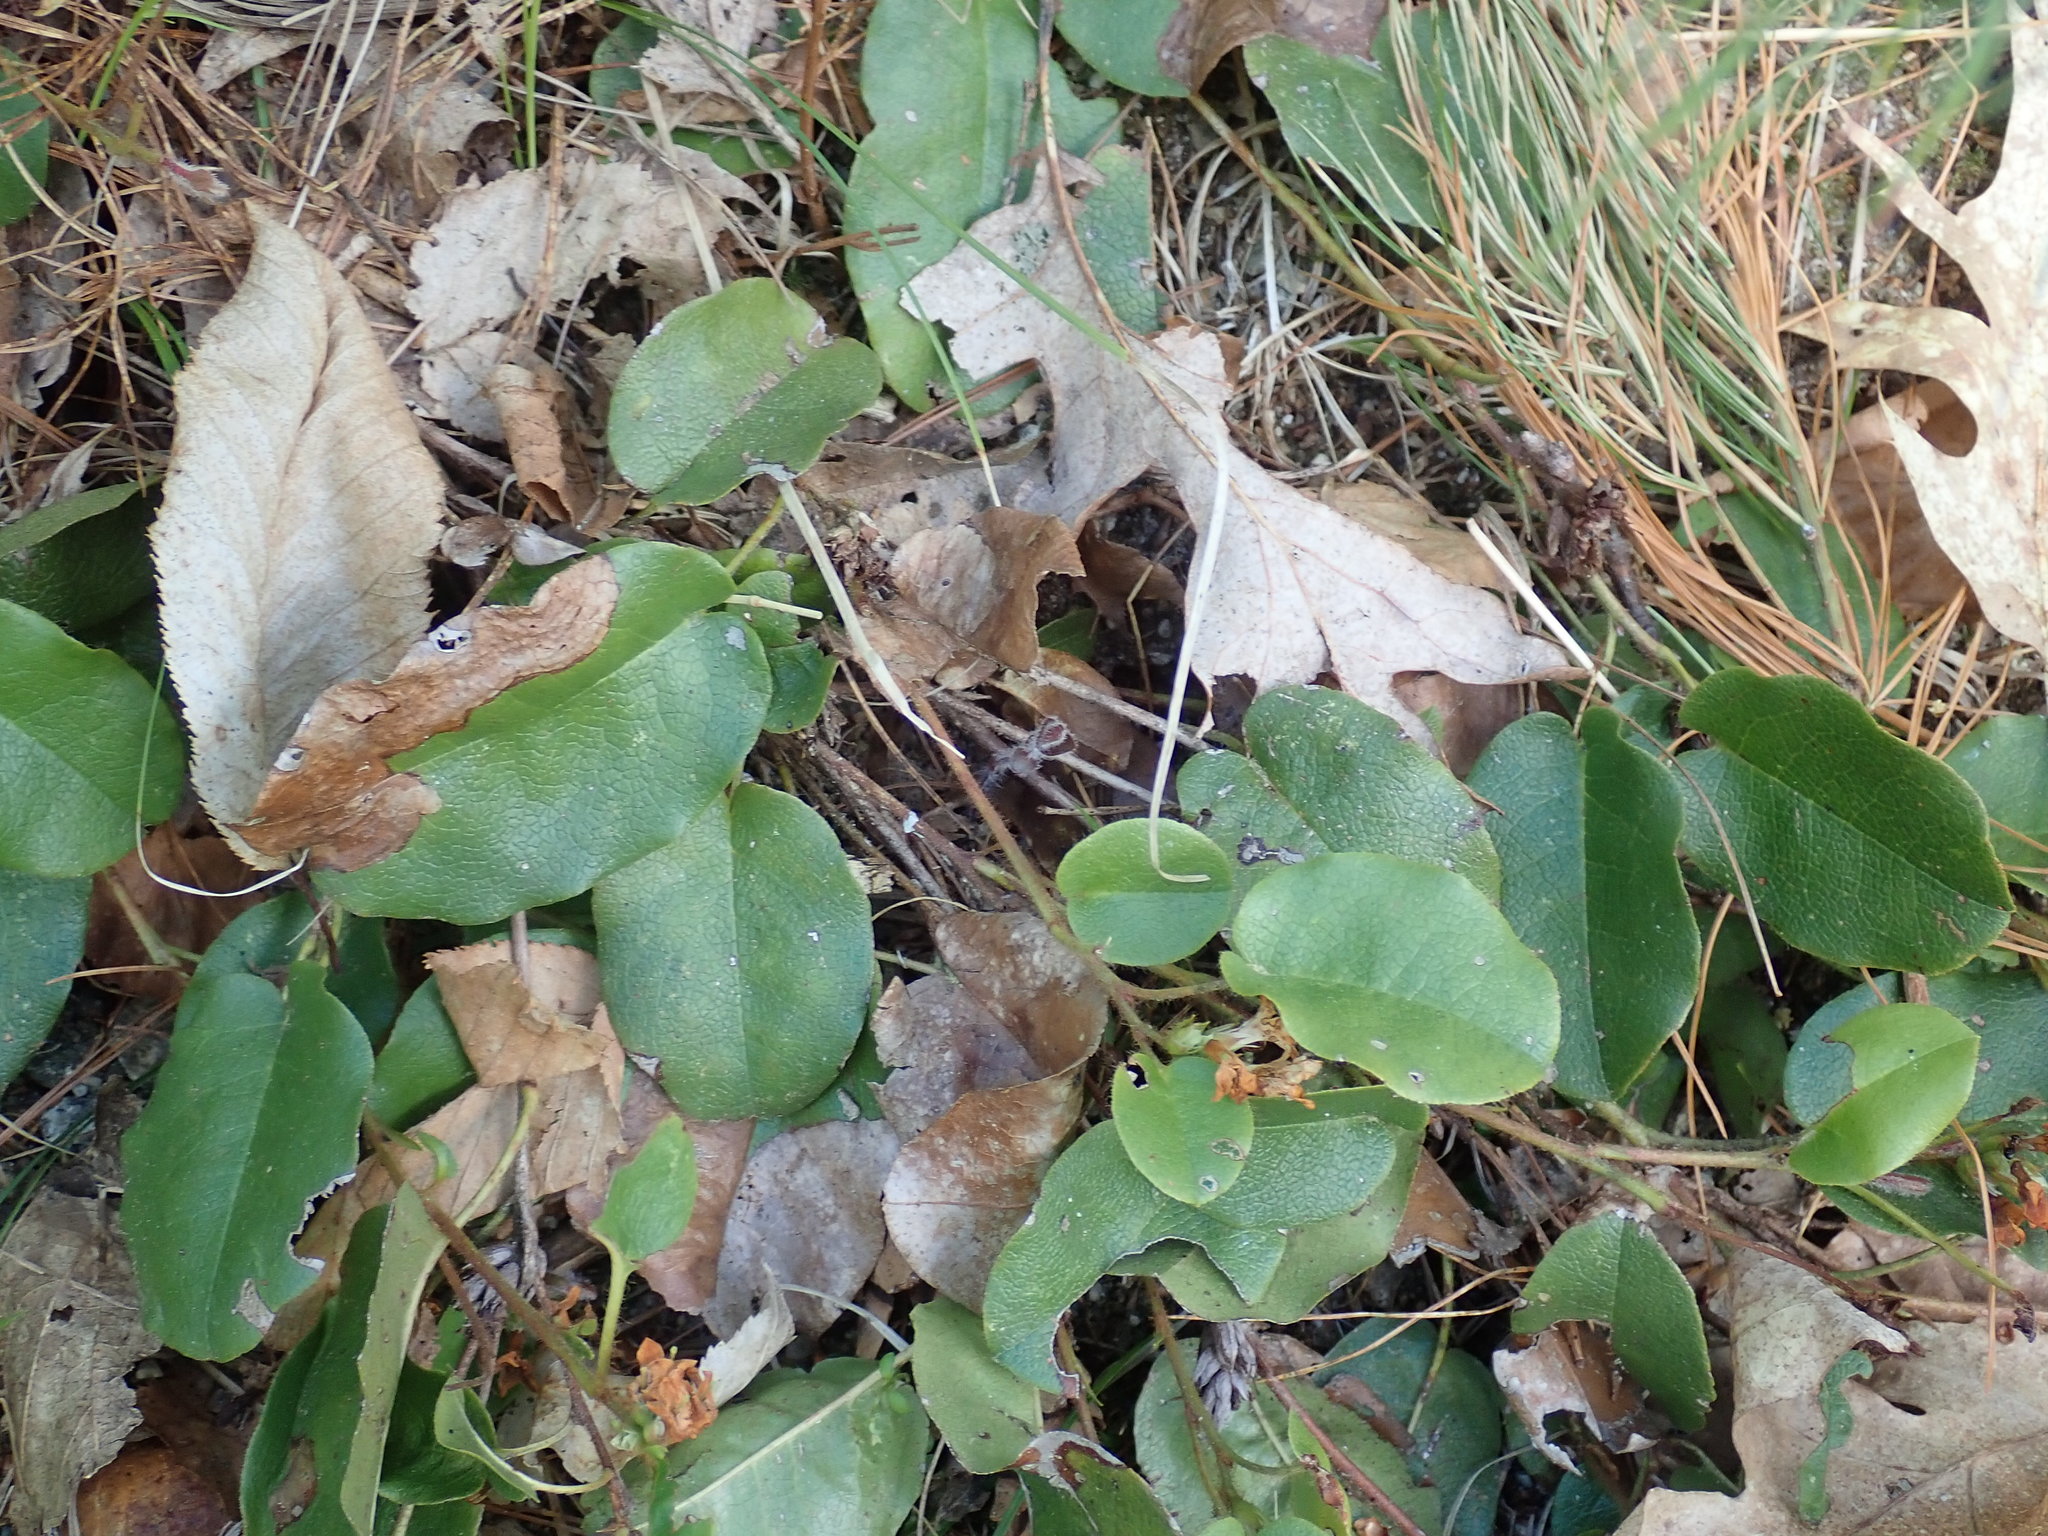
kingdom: Plantae
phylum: Tracheophyta
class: Magnoliopsida
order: Ericales
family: Ericaceae
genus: Epigaea
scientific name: Epigaea repens
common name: Gravelroot
